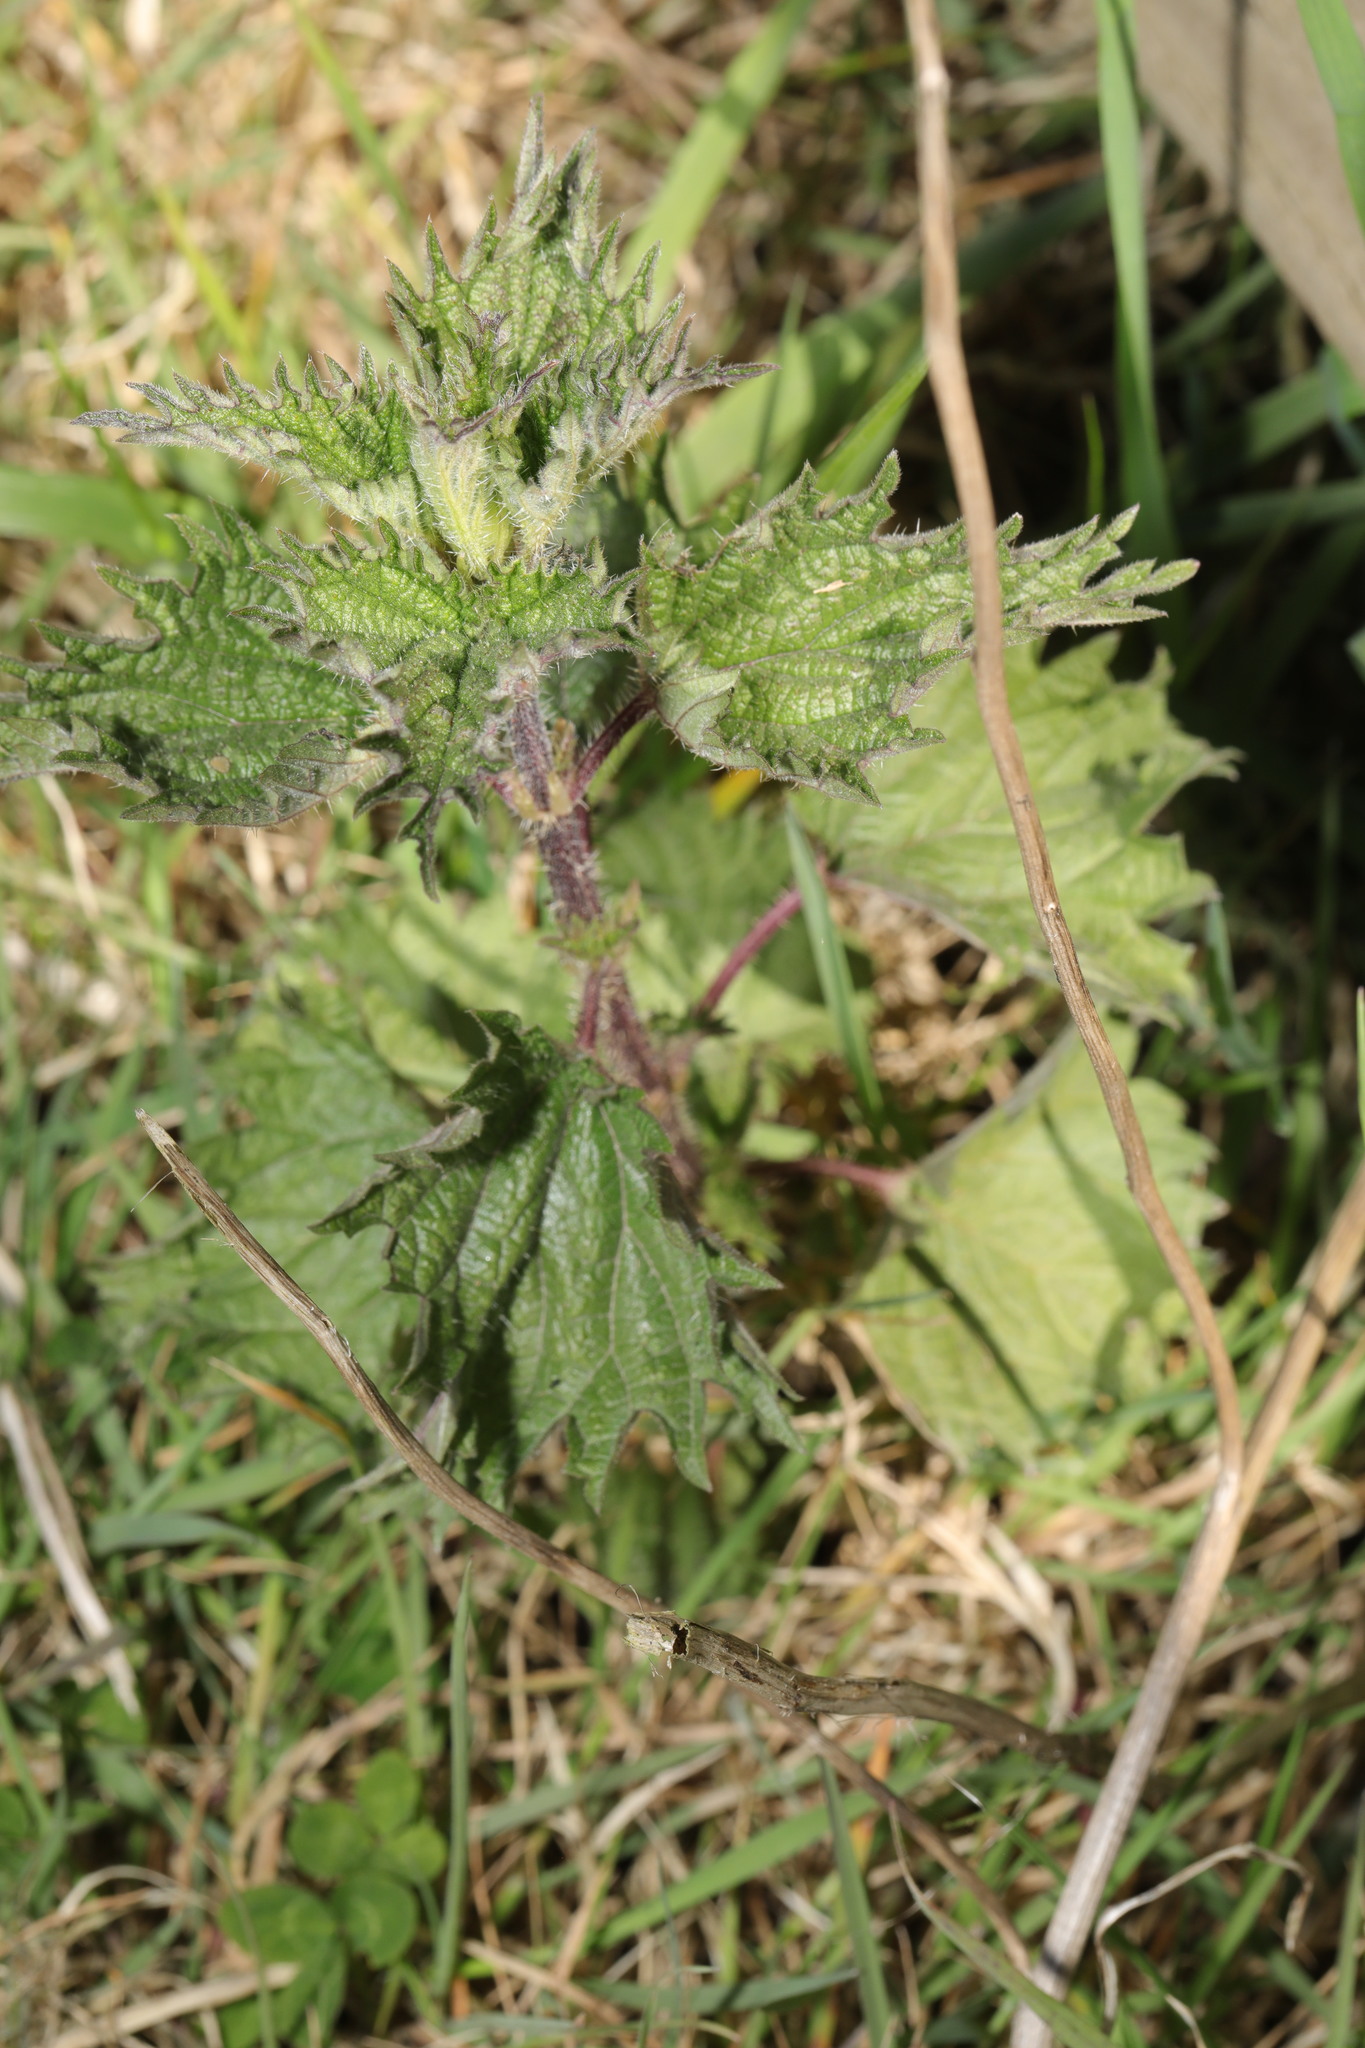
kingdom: Plantae
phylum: Tracheophyta
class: Magnoliopsida
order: Rosales
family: Urticaceae
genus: Urtica
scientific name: Urtica dioica
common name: Common nettle
